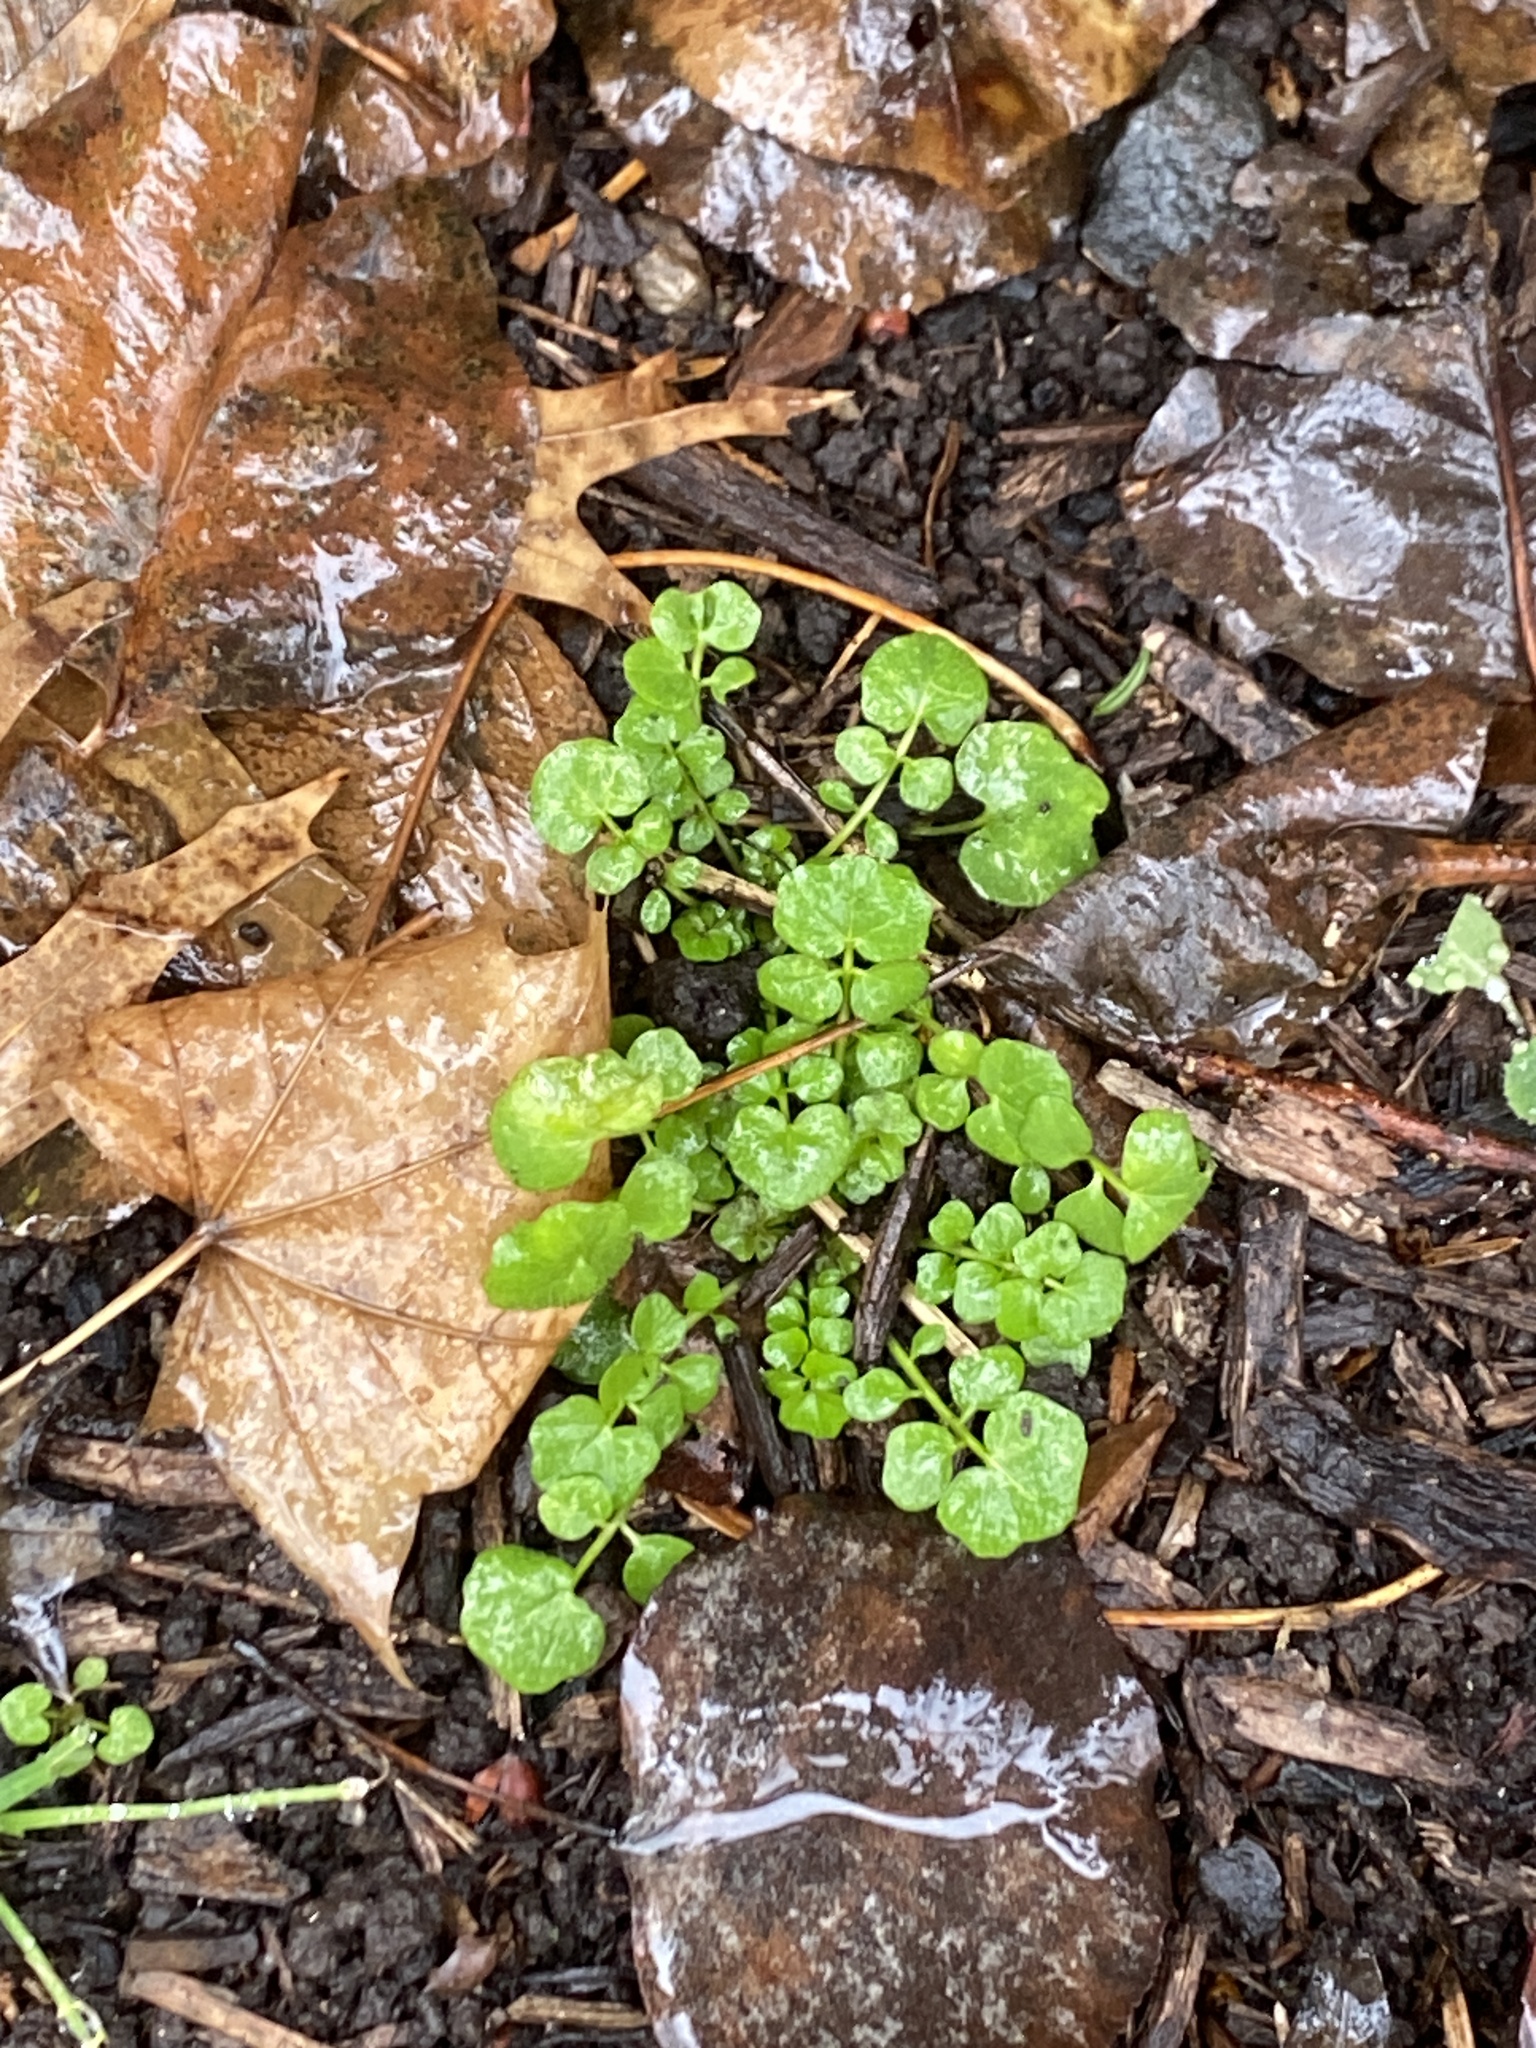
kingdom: Plantae
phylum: Tracheophyta
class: Magnoliopsida
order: Brassicales
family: Brassicaceae
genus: Cardamine
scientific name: Cardamine hirsuta
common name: Hairy bittercress
